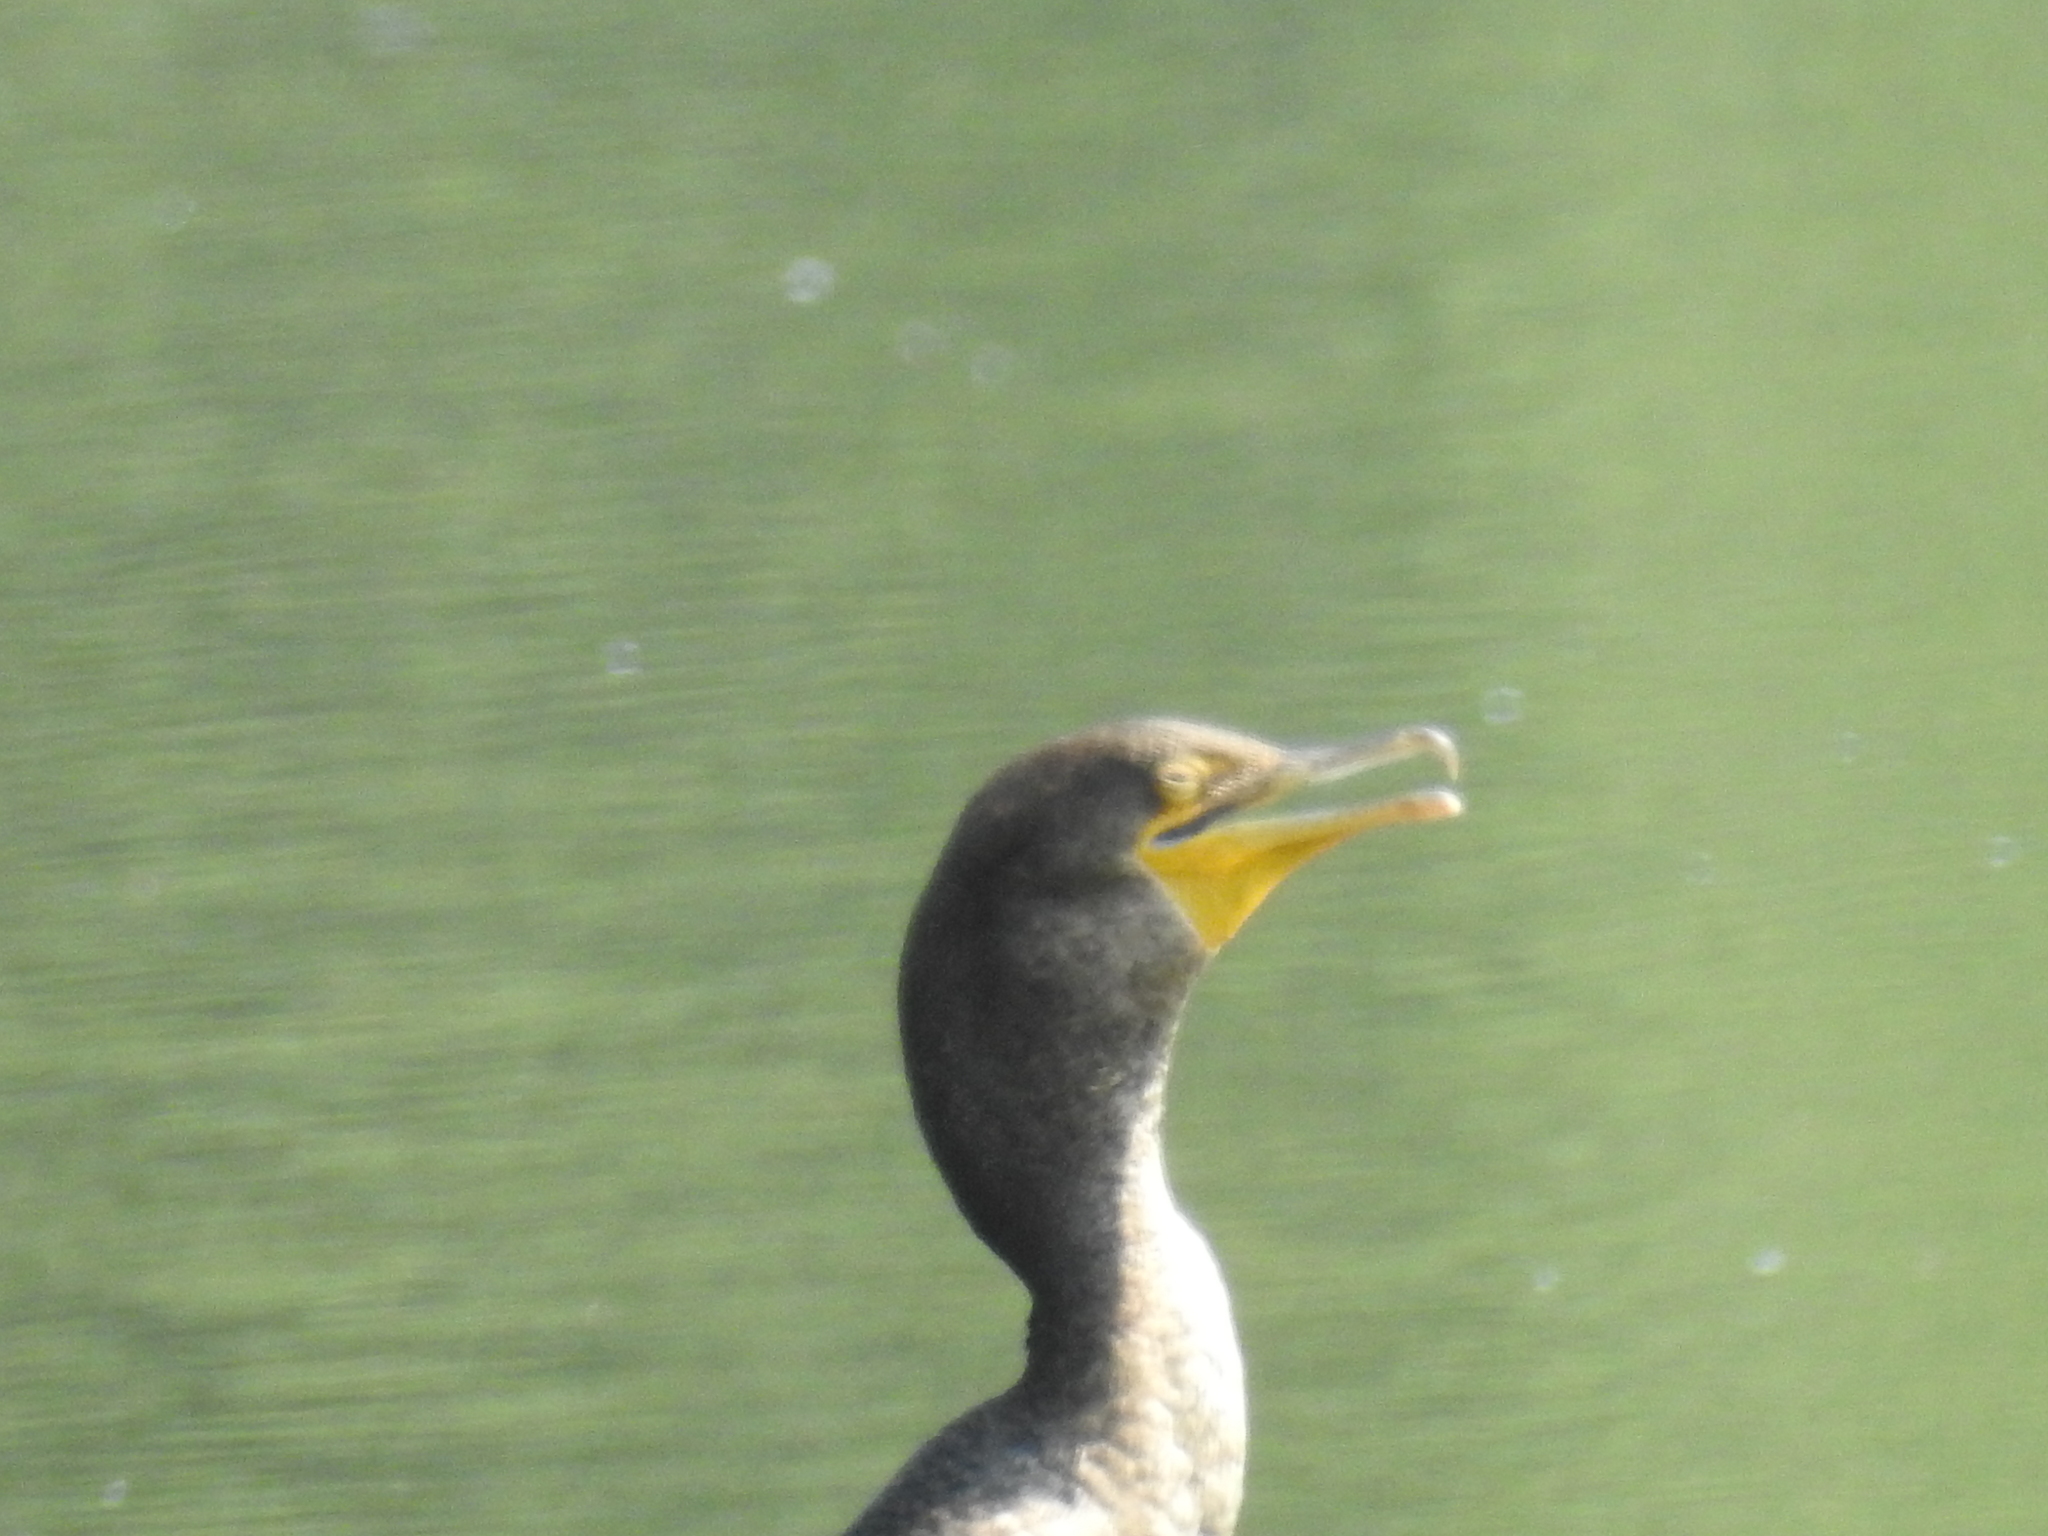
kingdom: Animalia
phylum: Chordata
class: Aves
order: Suliformes
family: Phalacrocoracidae
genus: Phalacrocorax
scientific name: Phalacrocorax auritus
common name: Double-crested cormorant
